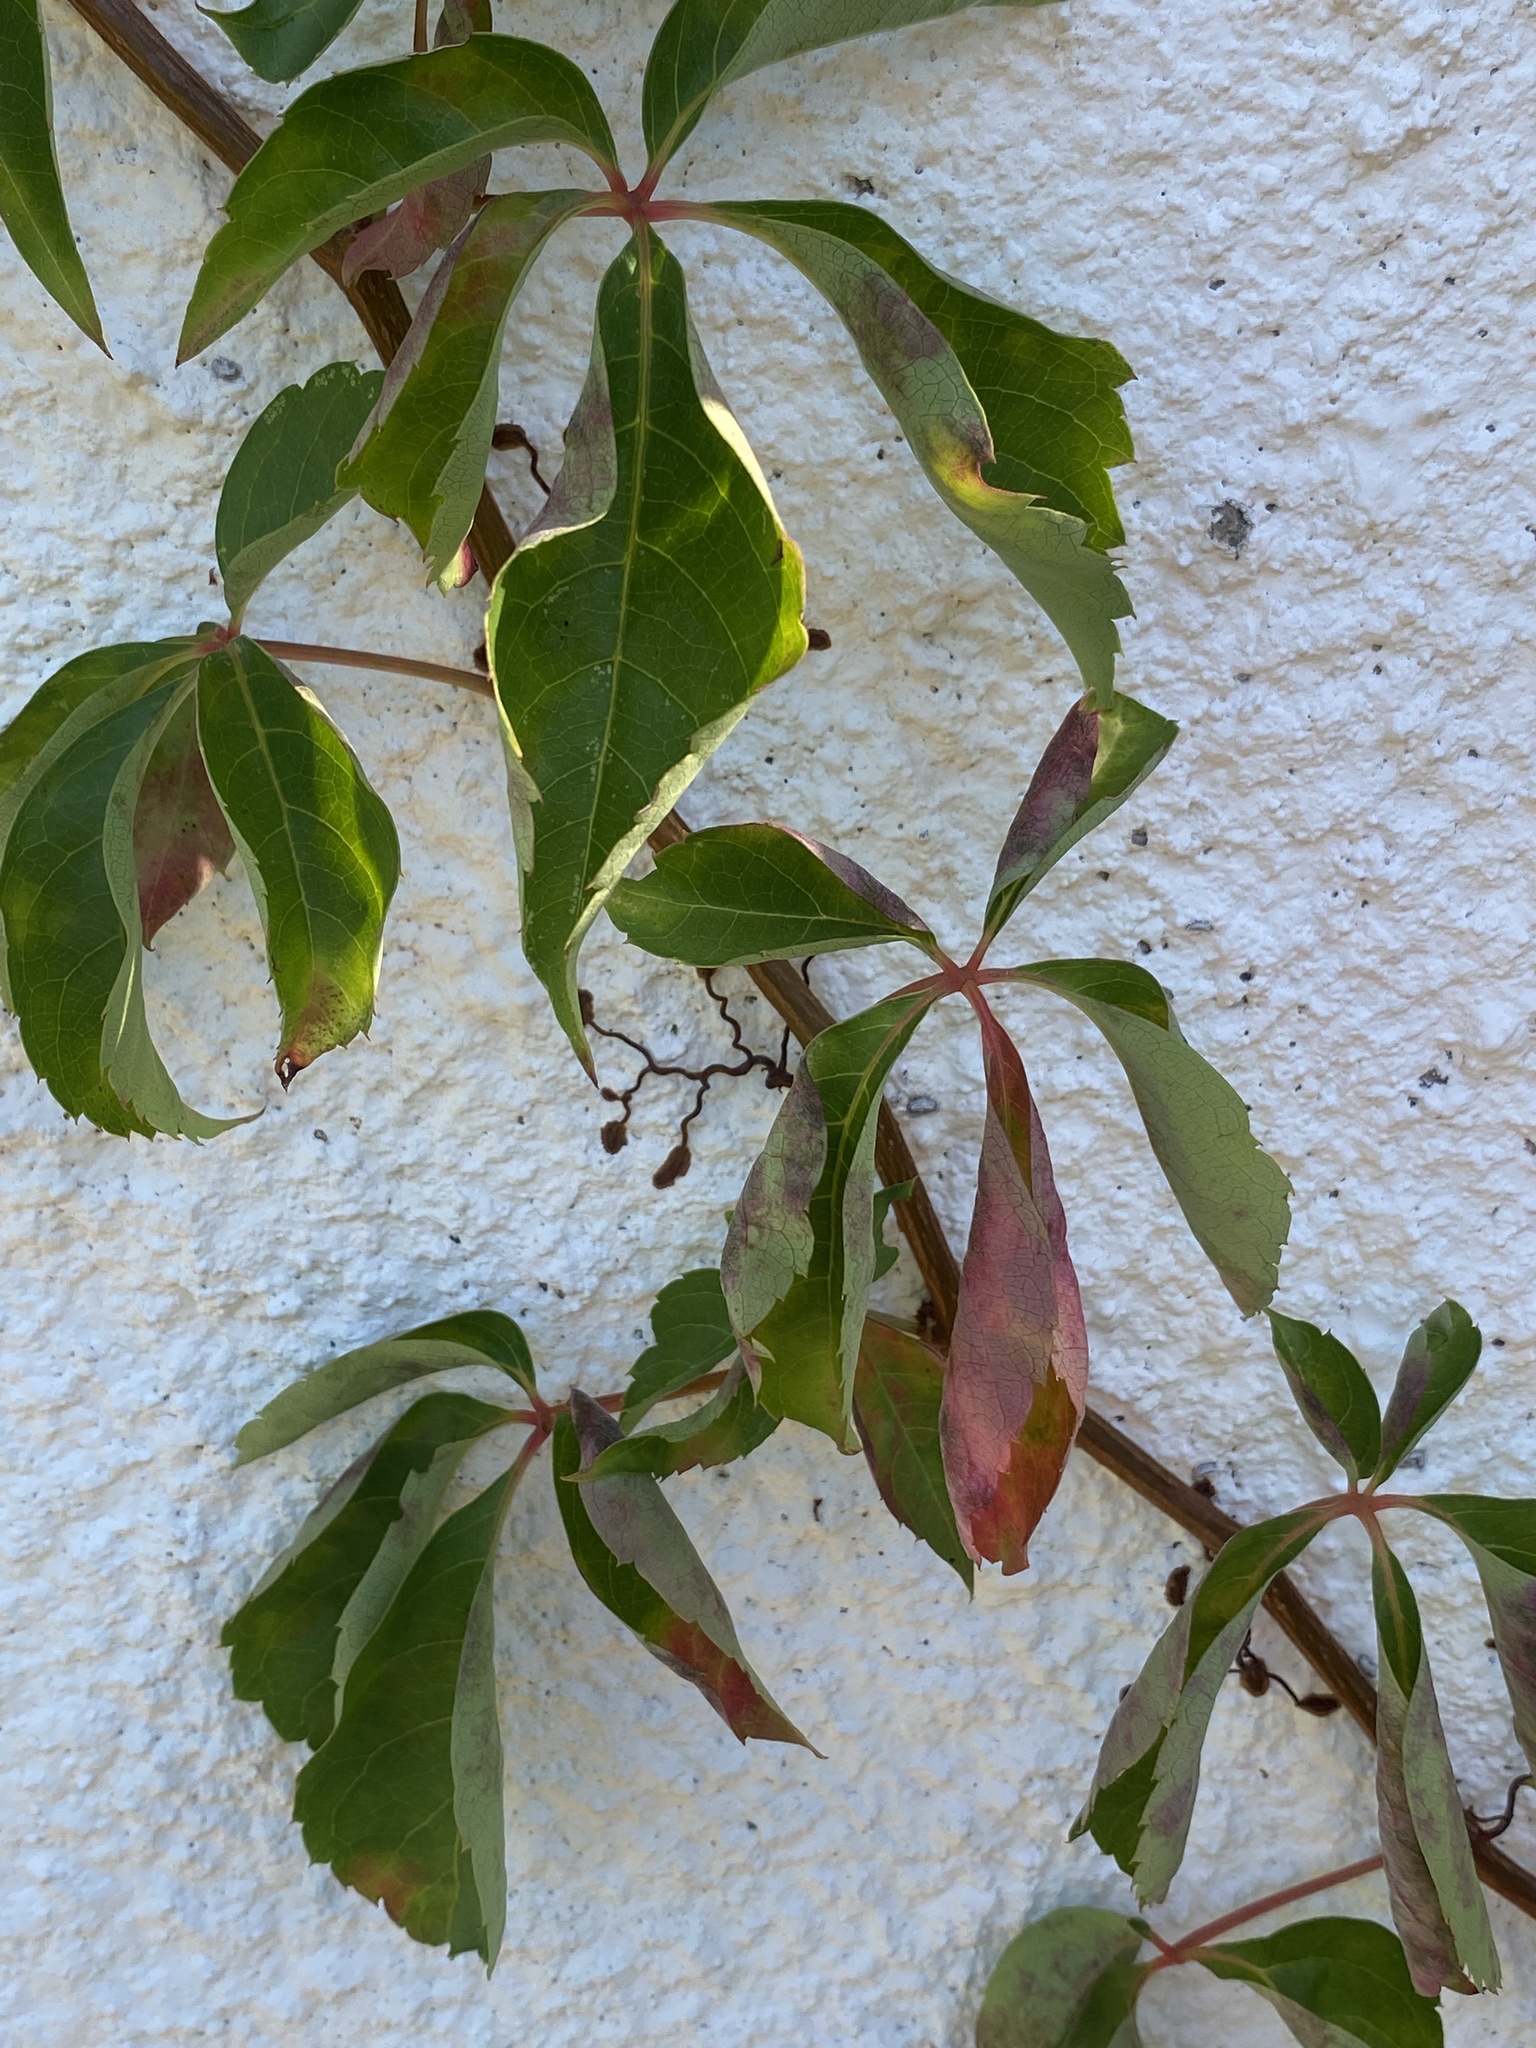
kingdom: Plantae
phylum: Tracheophyta
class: Magnoliopsida
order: Vitales
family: Vitaceae
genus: Parthenocissus
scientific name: Parthenocissus quinquefolia
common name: Virginia-creeper
